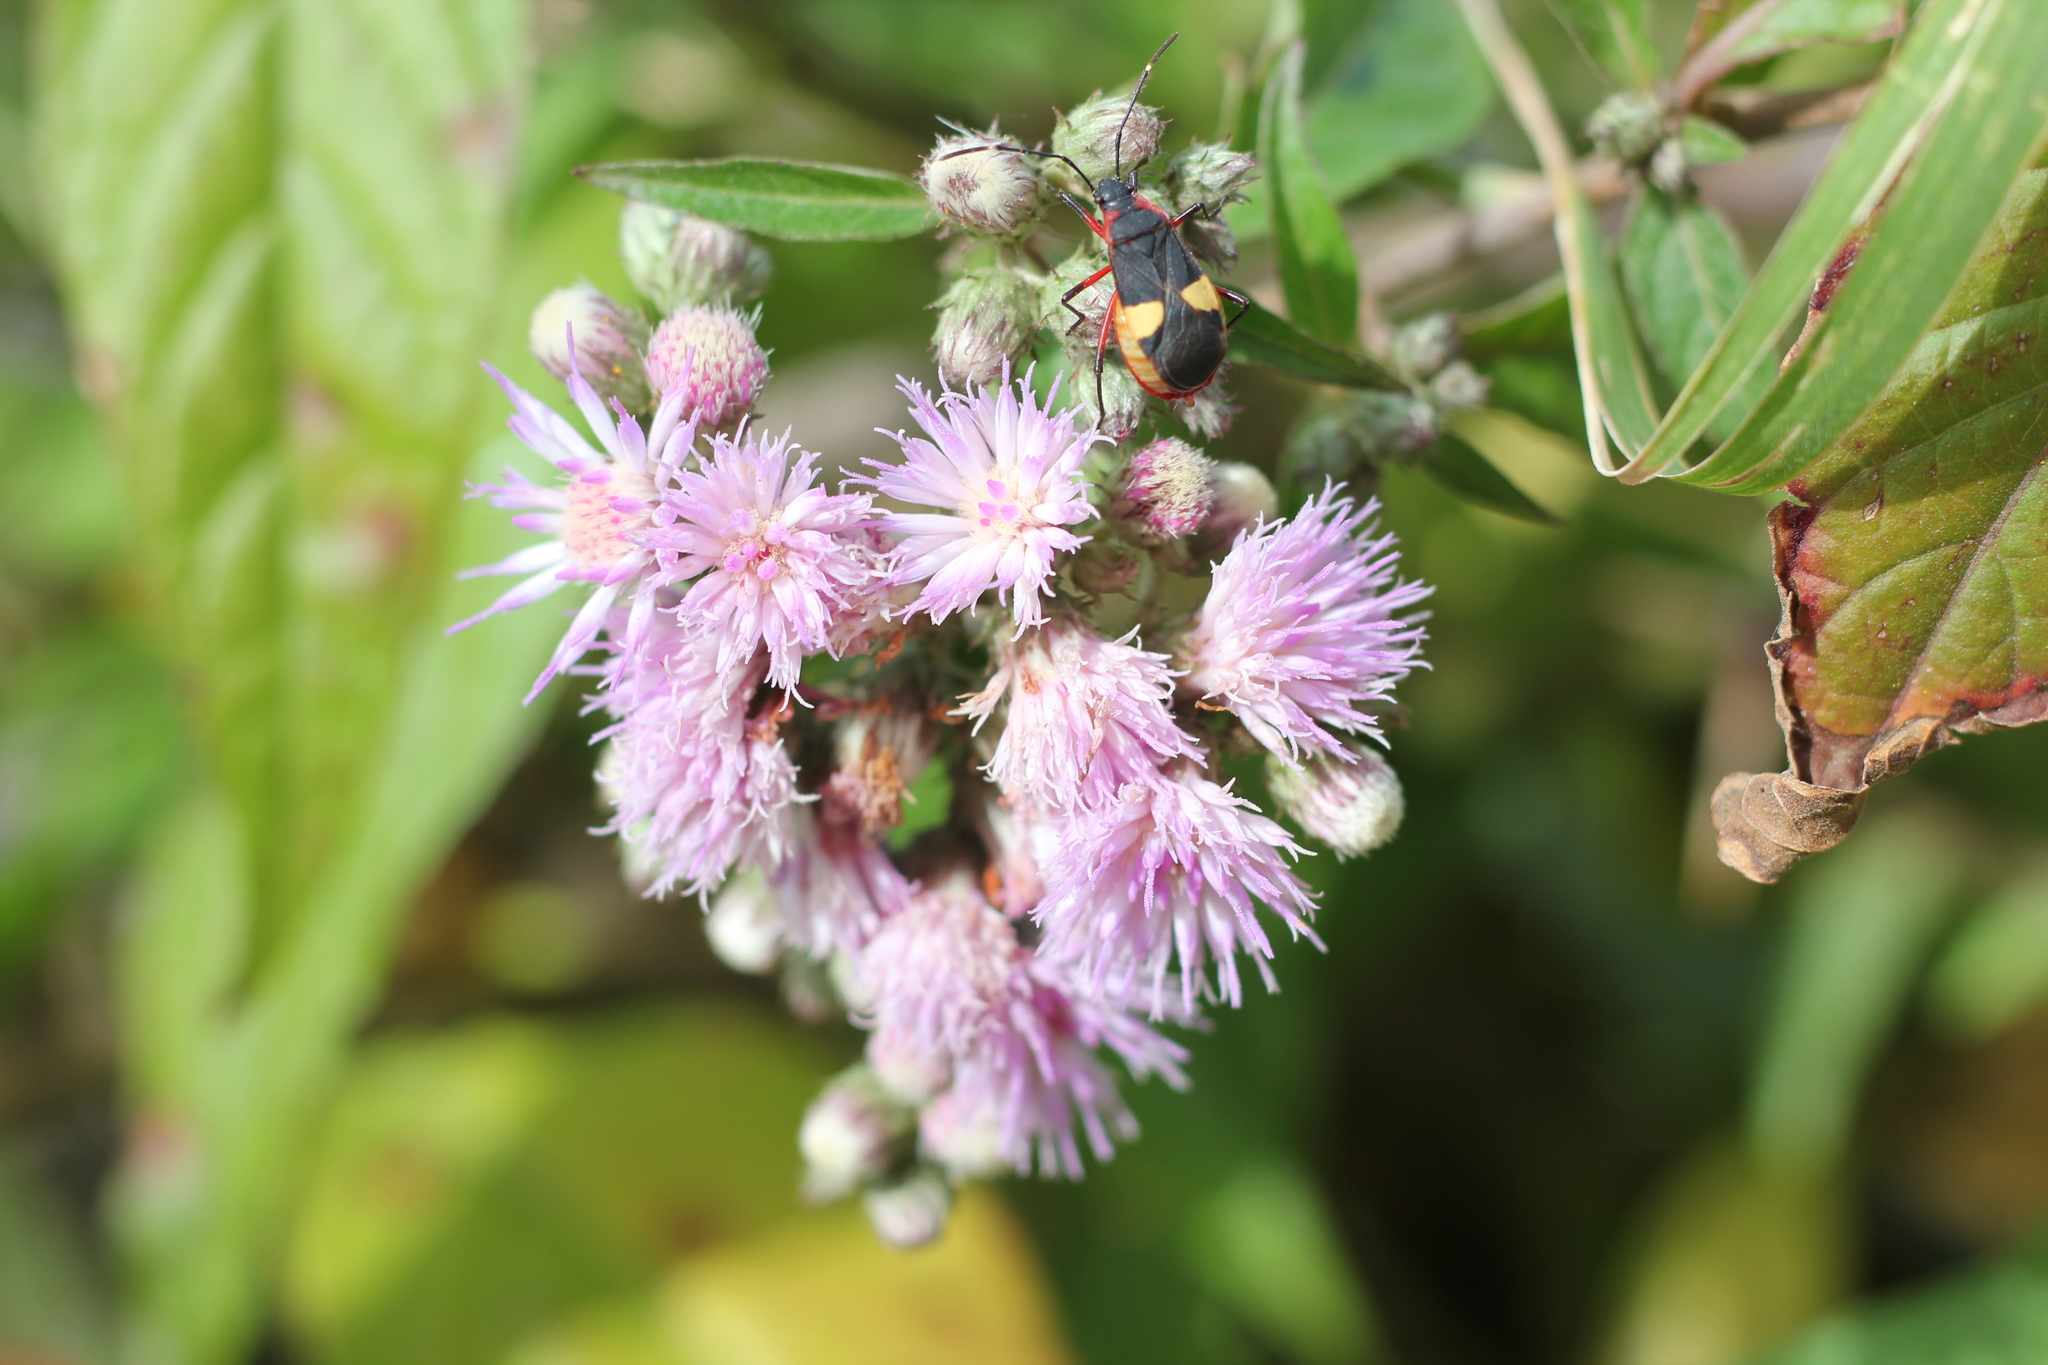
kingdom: Animalia
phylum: Arthropoda
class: Insecta
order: Hemiptera
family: Pyrrhocoridae
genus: Dysdercus
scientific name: Dysdercus albofasciatus
